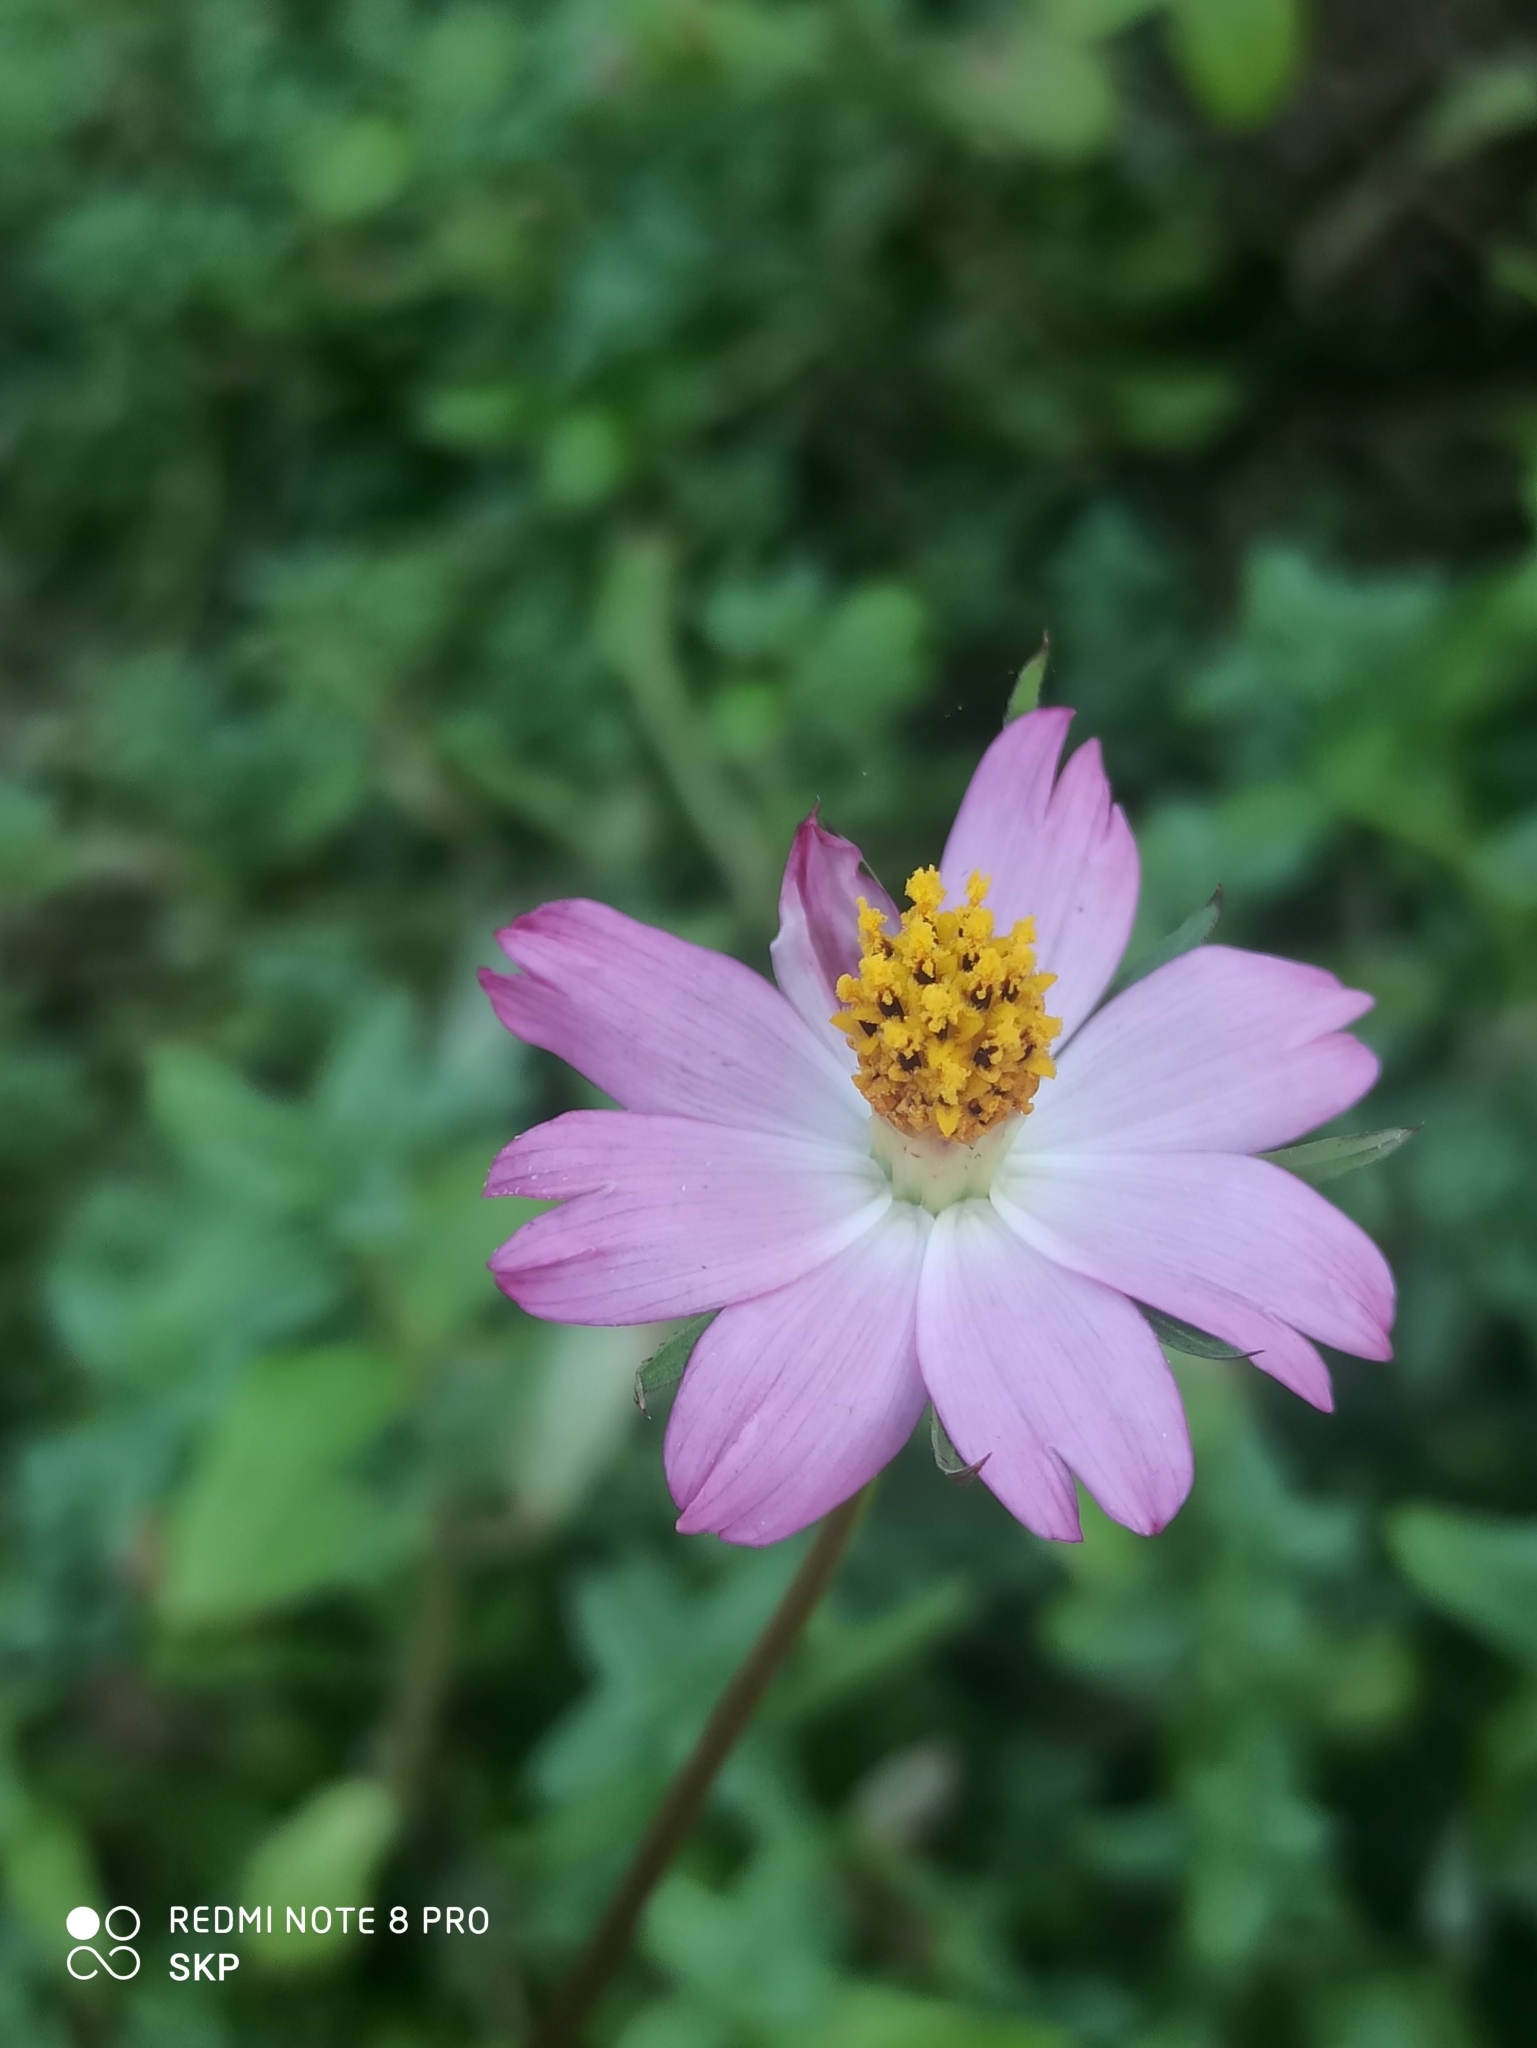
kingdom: Plantae
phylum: Tracheophyta
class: Magnoliopsida
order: Asterales
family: Asteraceae
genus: Cosmos
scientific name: Cosmos caudatus
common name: Wild cosmos
